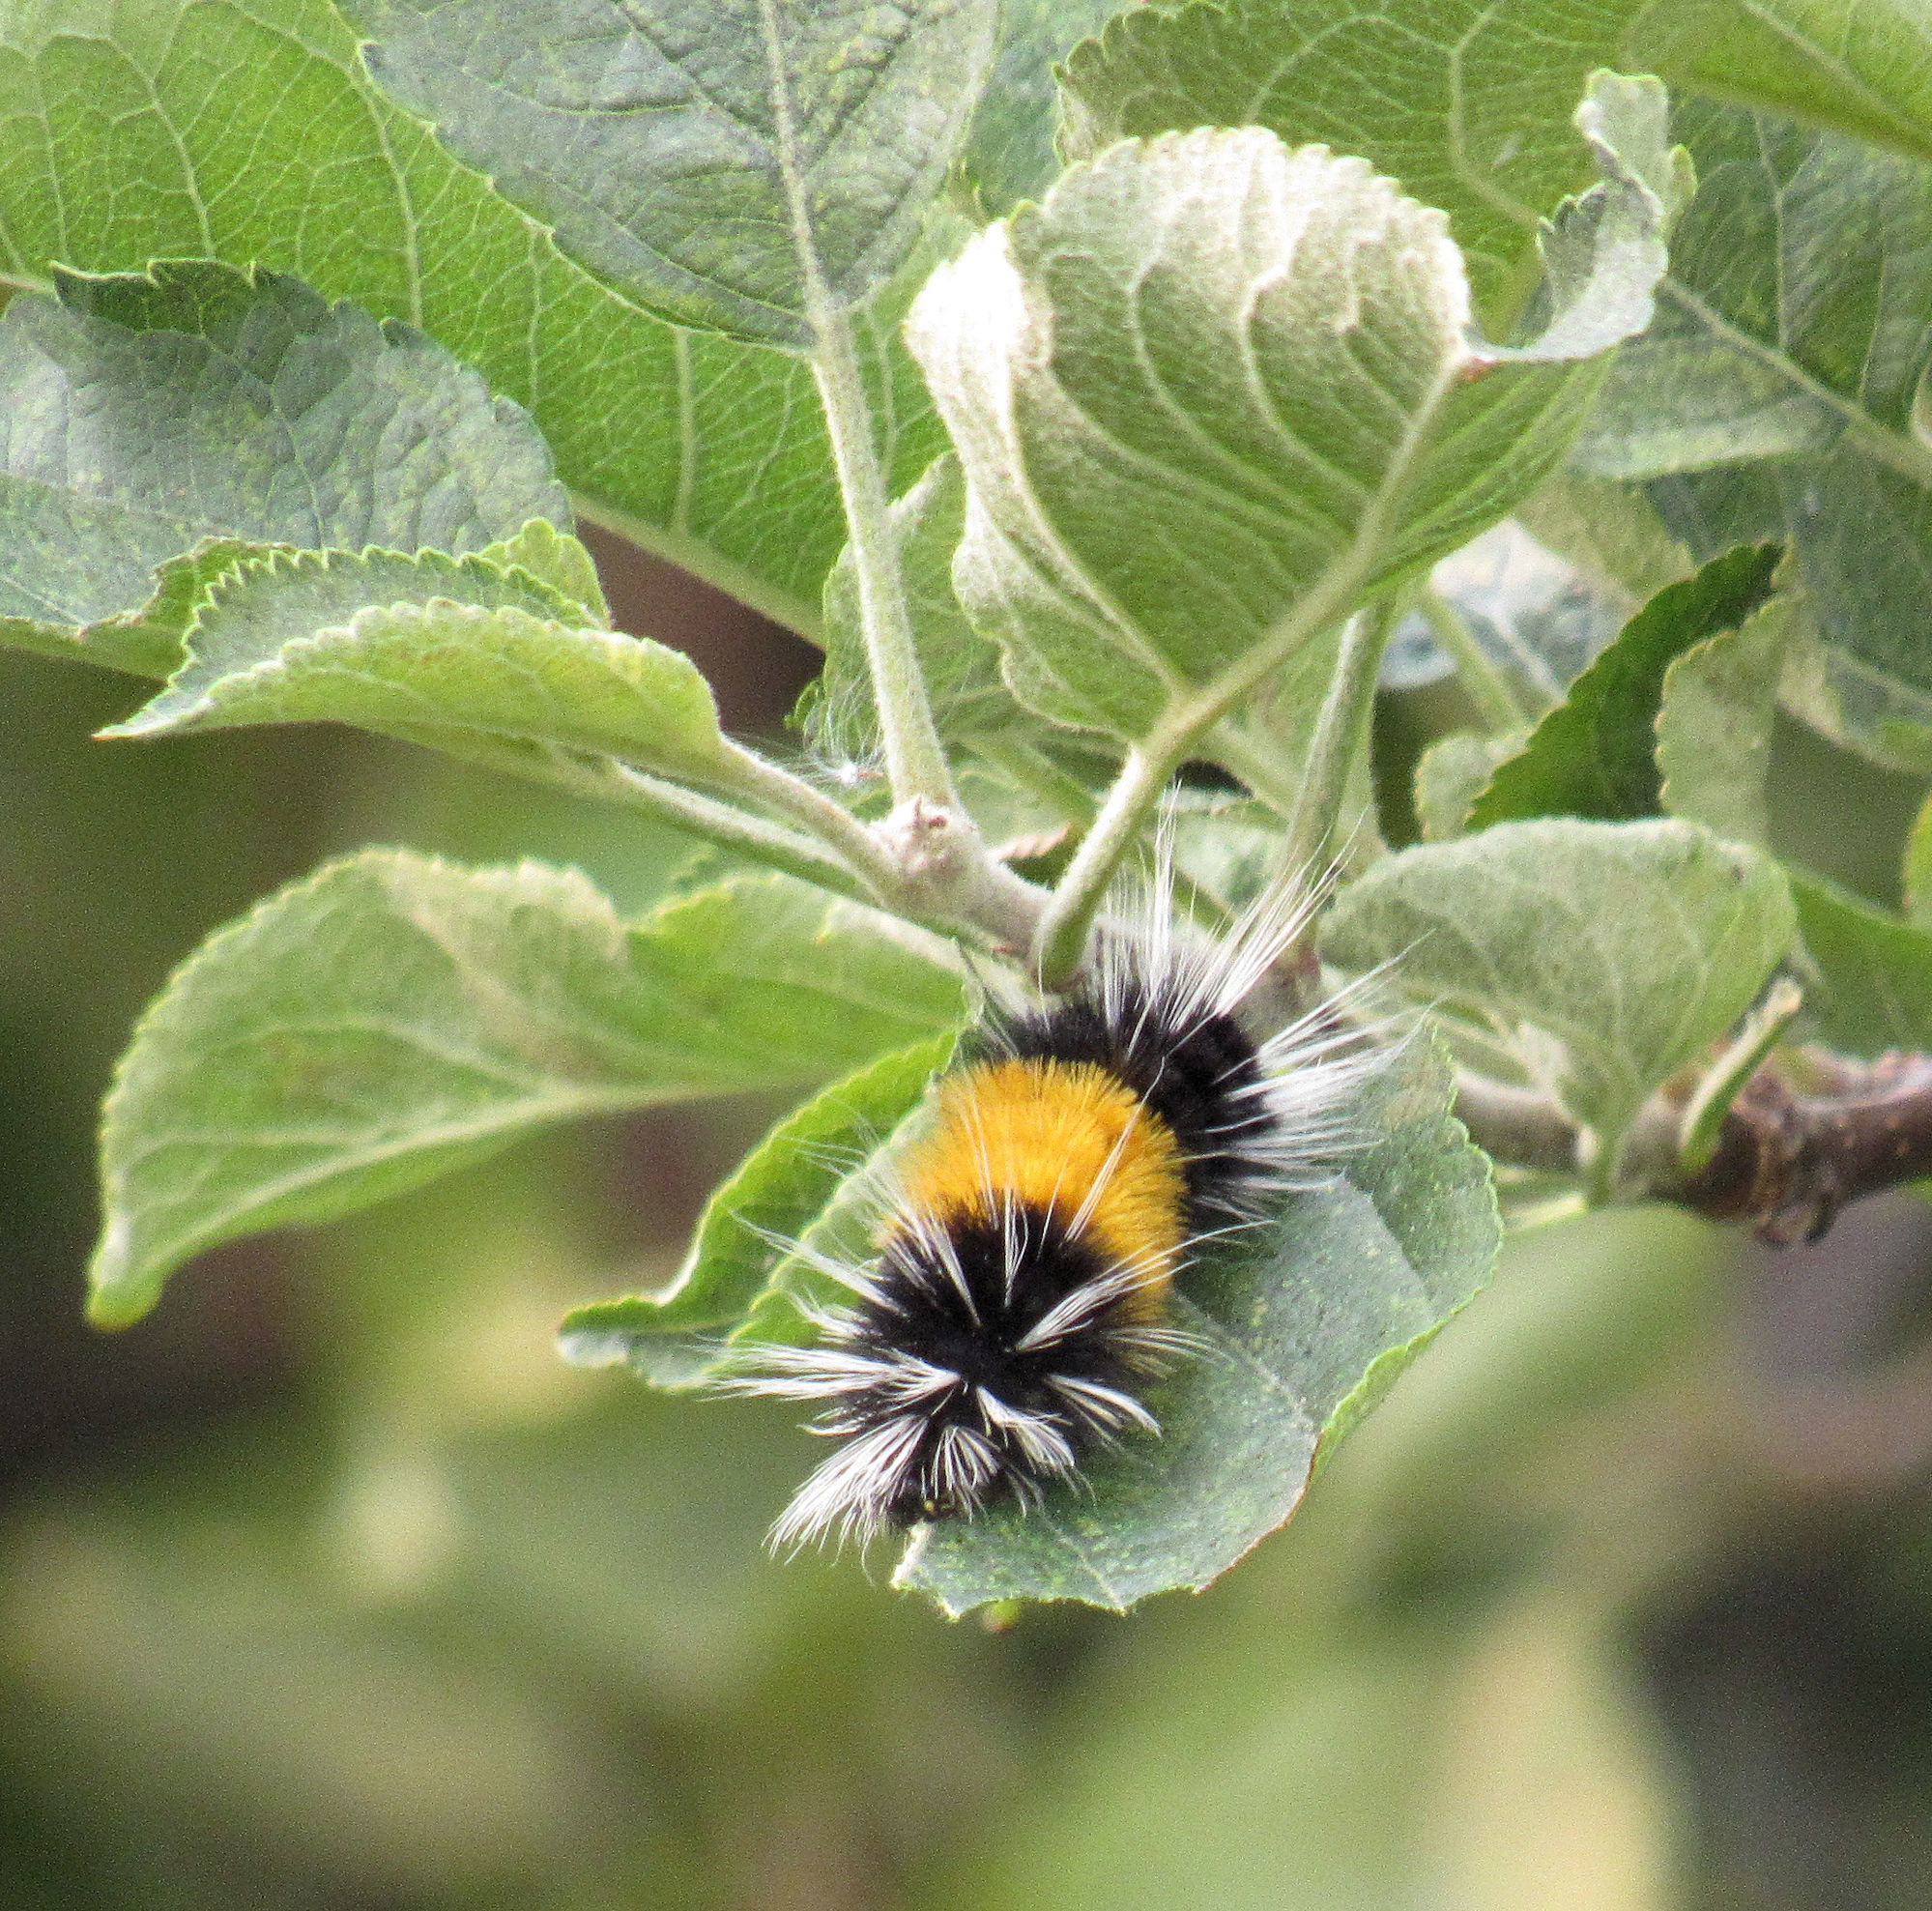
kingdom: Animalia
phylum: Arthropoda
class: Insecta
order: Lepidoptera
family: Erebidae
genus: Lophocampa
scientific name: Lophocampa maculata
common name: Spotted tussock moth
